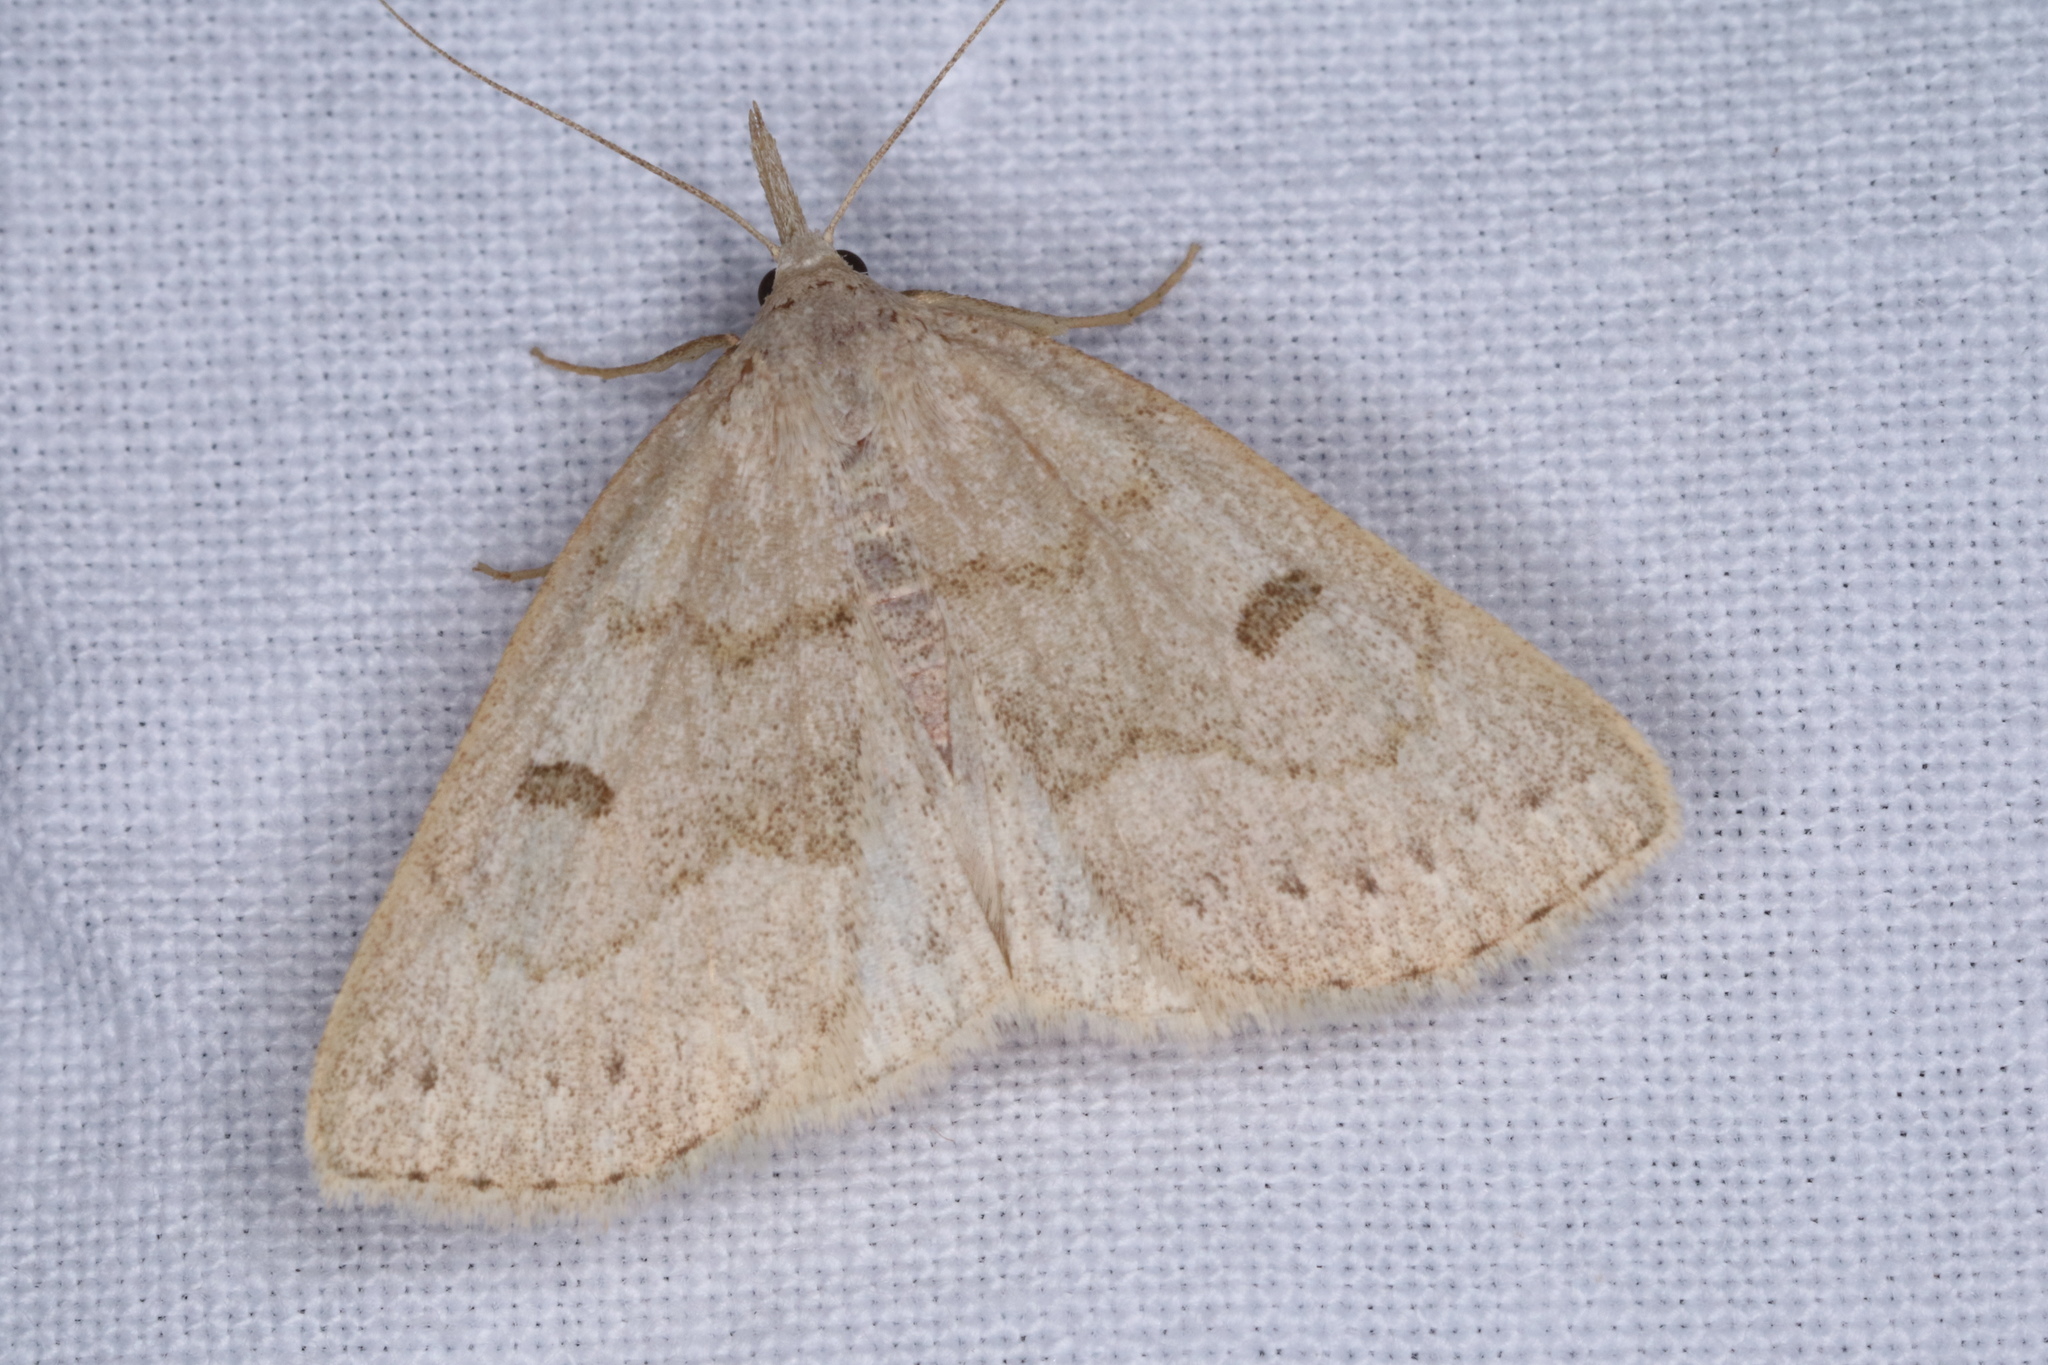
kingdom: Animalia
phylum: Arthropoda
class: Insecta
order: Lepidoptera
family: Erebidae
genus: Macrochilo
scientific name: Macrochilo morbidalis
